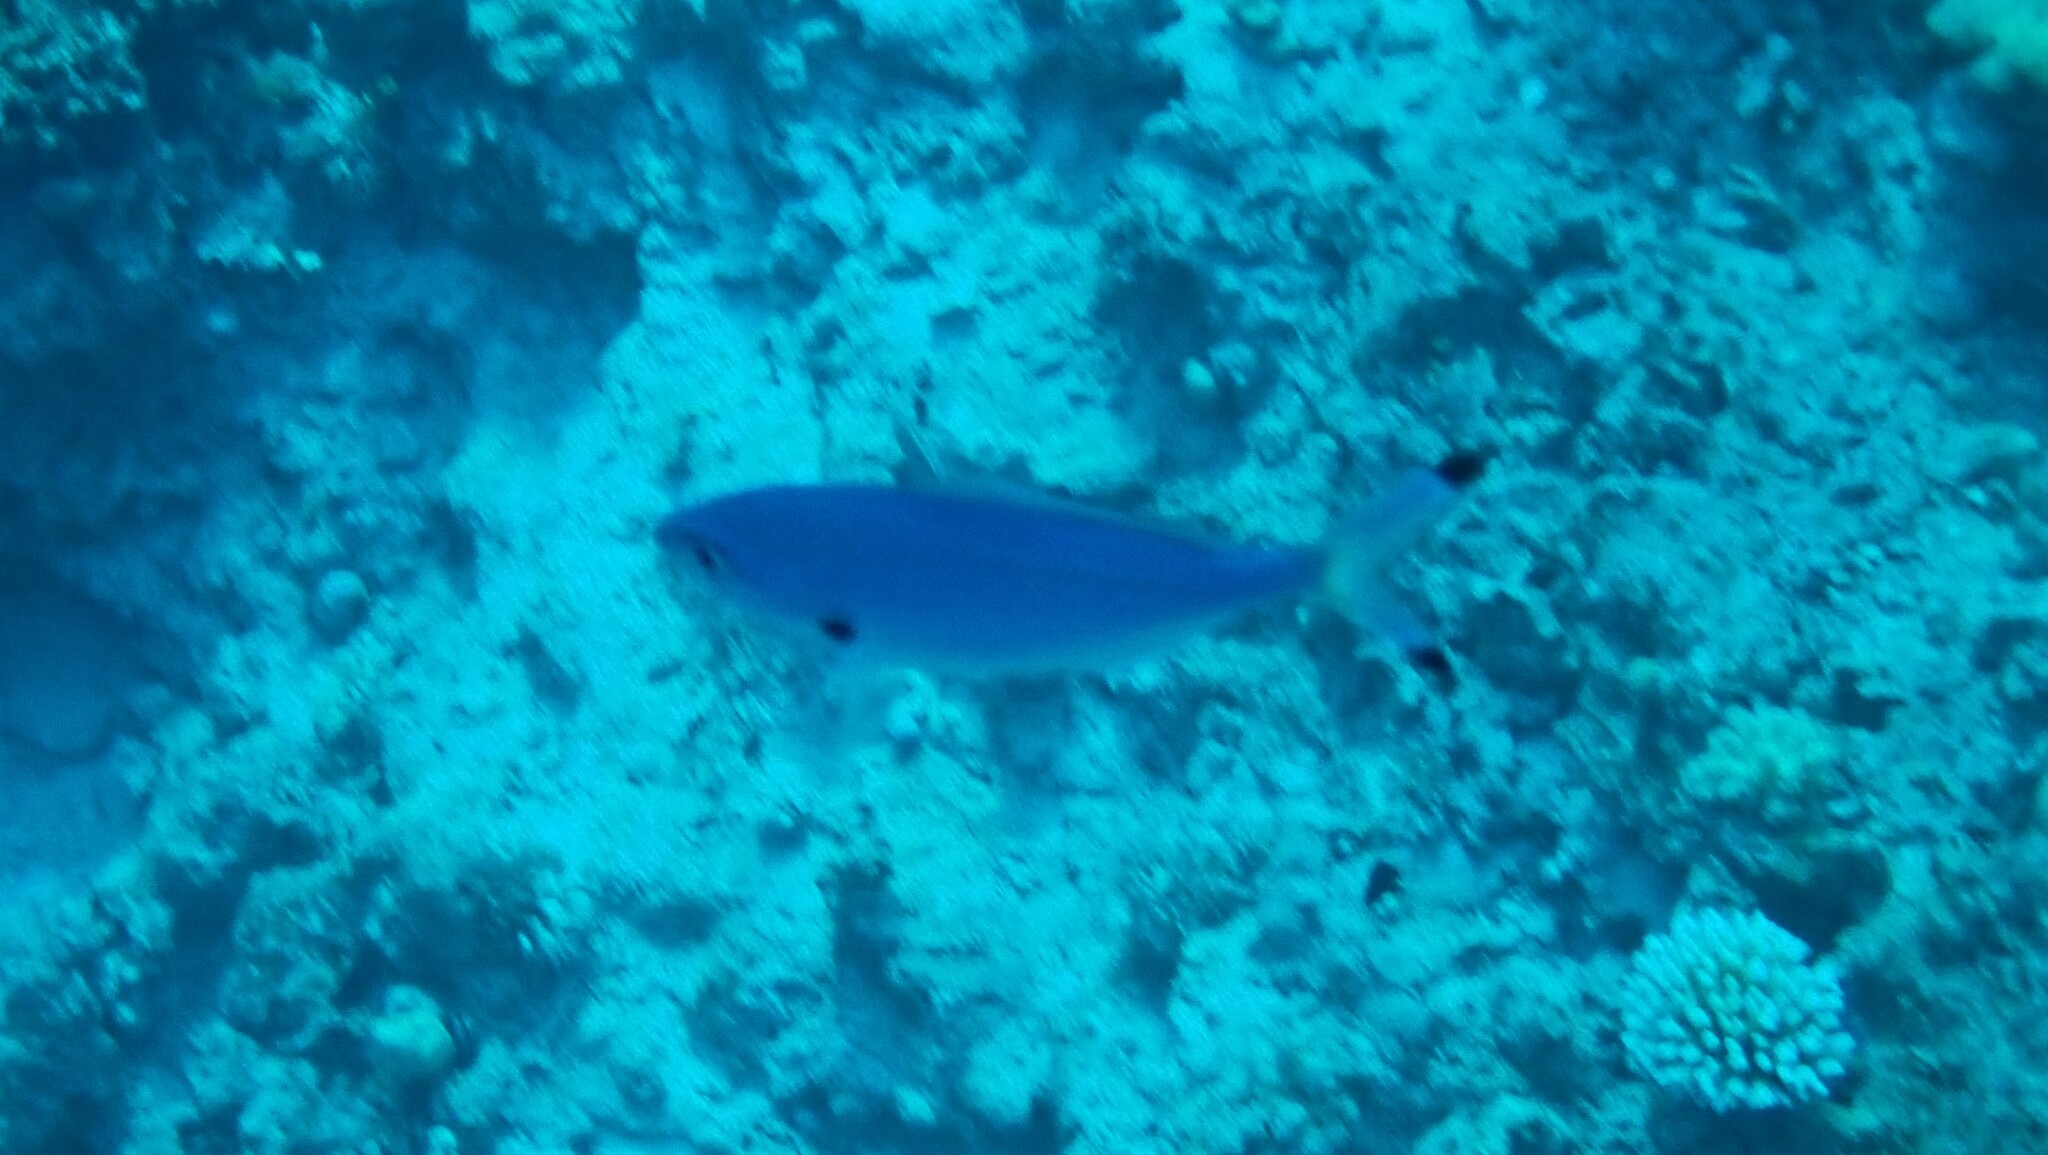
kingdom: Animalia
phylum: Chordata
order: Perciformes
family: Caesionidae
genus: Caesio
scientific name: Caesio lunaris
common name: Blue fusilier
